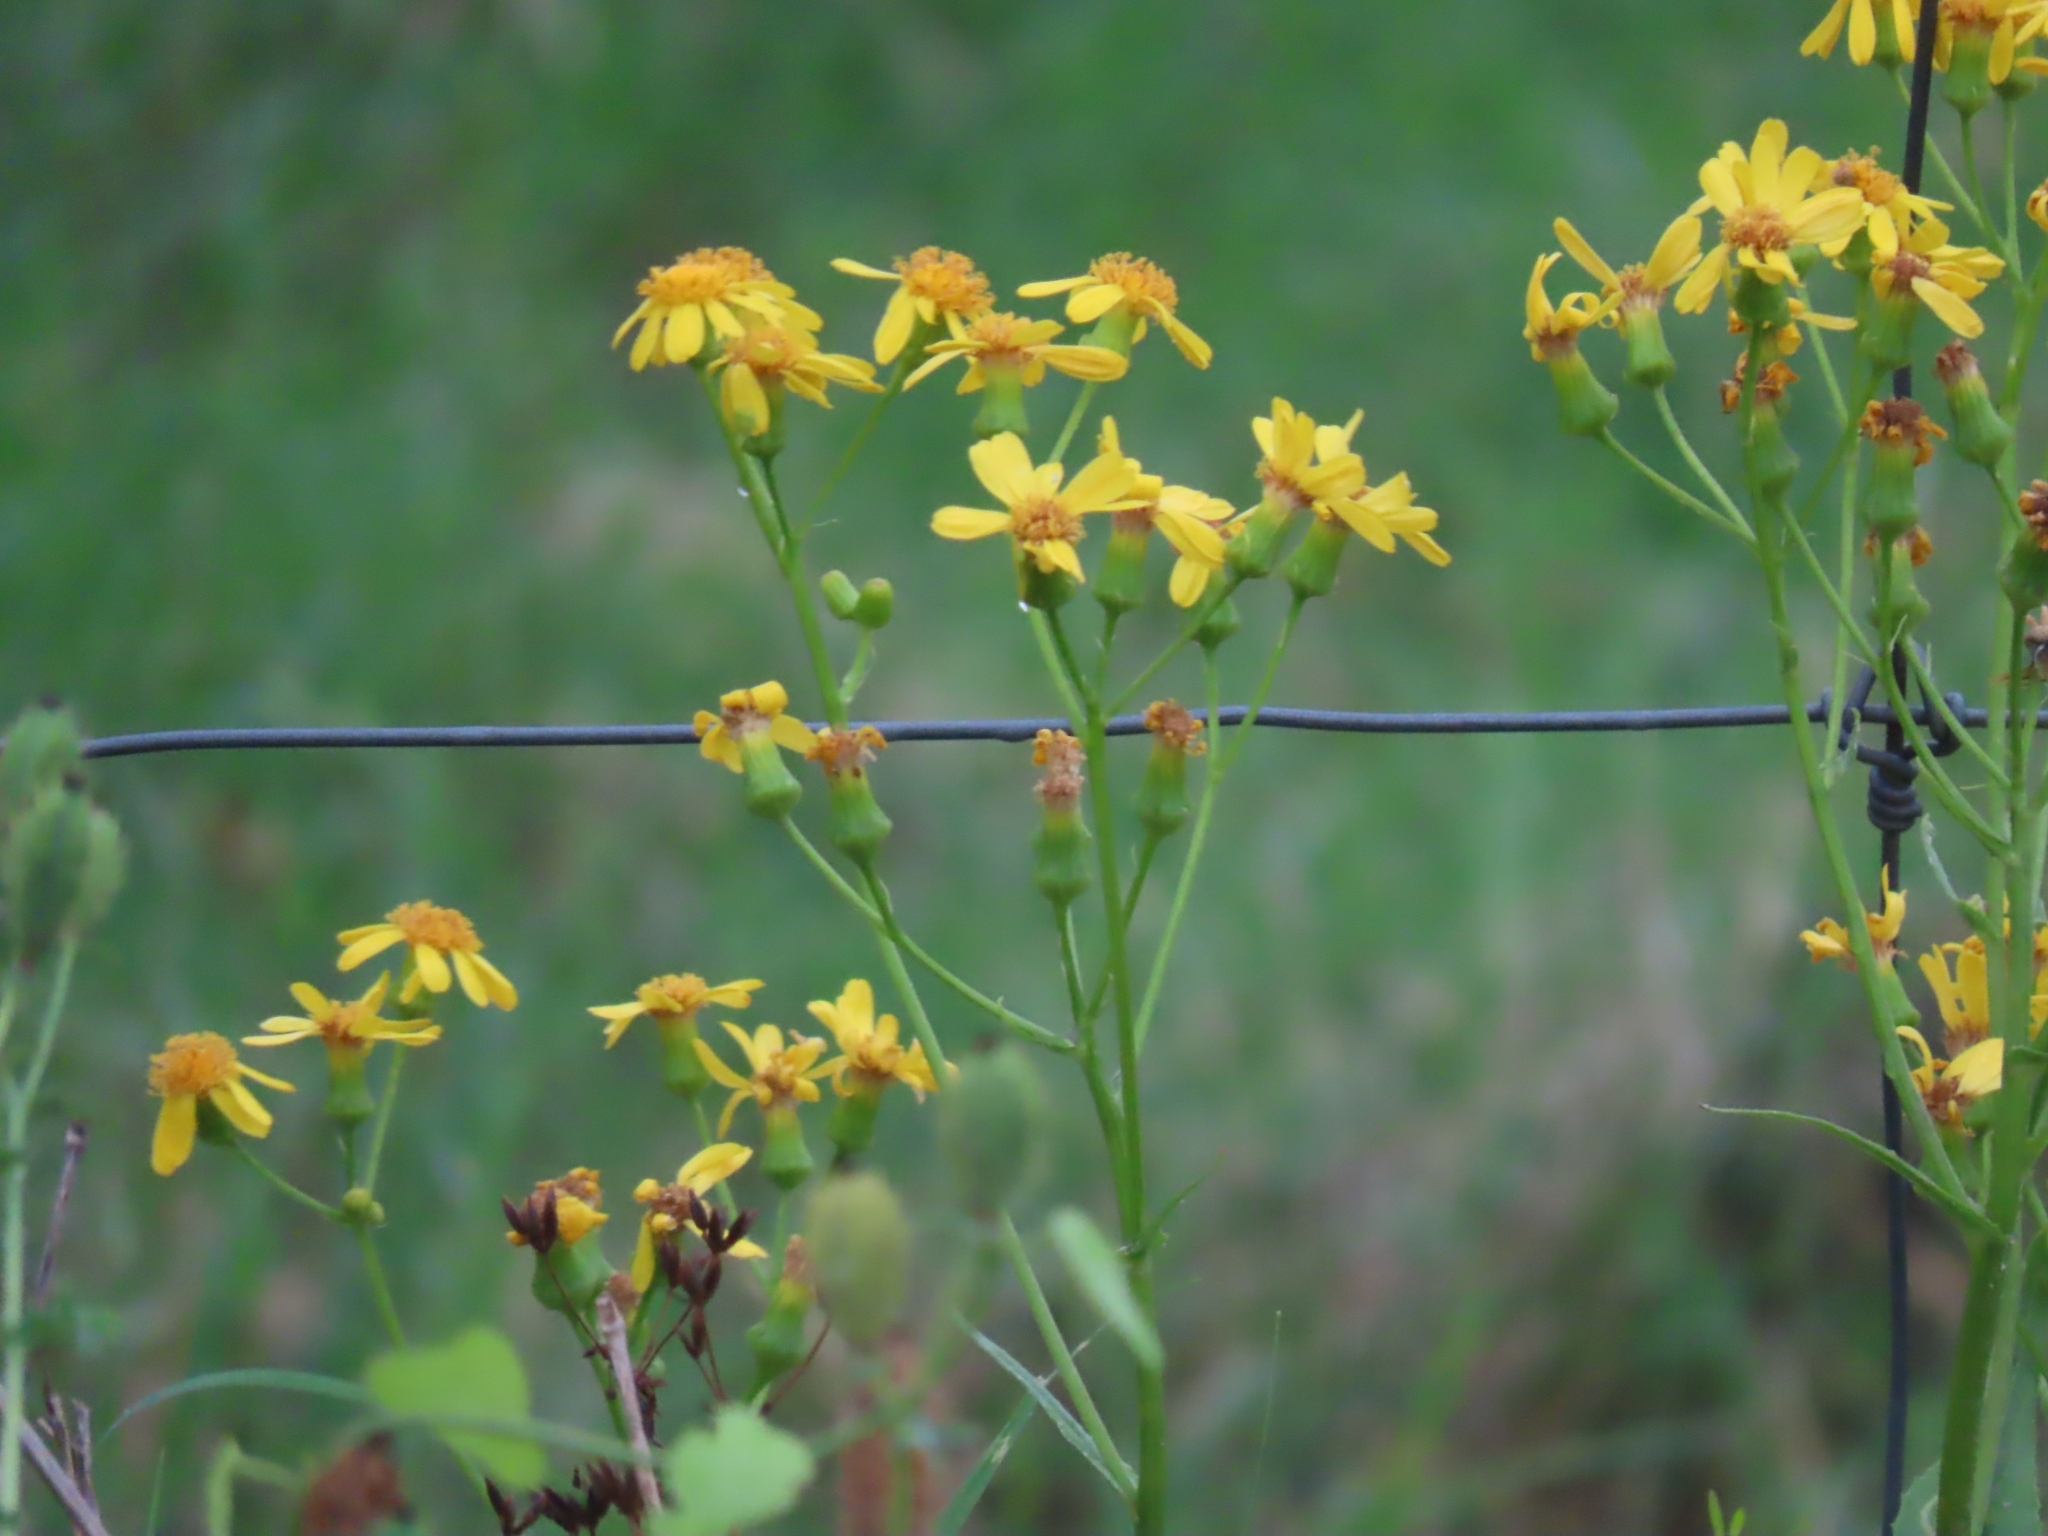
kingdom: Plantae
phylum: Tracheophyta
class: Magnoliopsida
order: Asterales
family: Asteraceae
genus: Senecio
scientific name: Senecio ampullaceus
